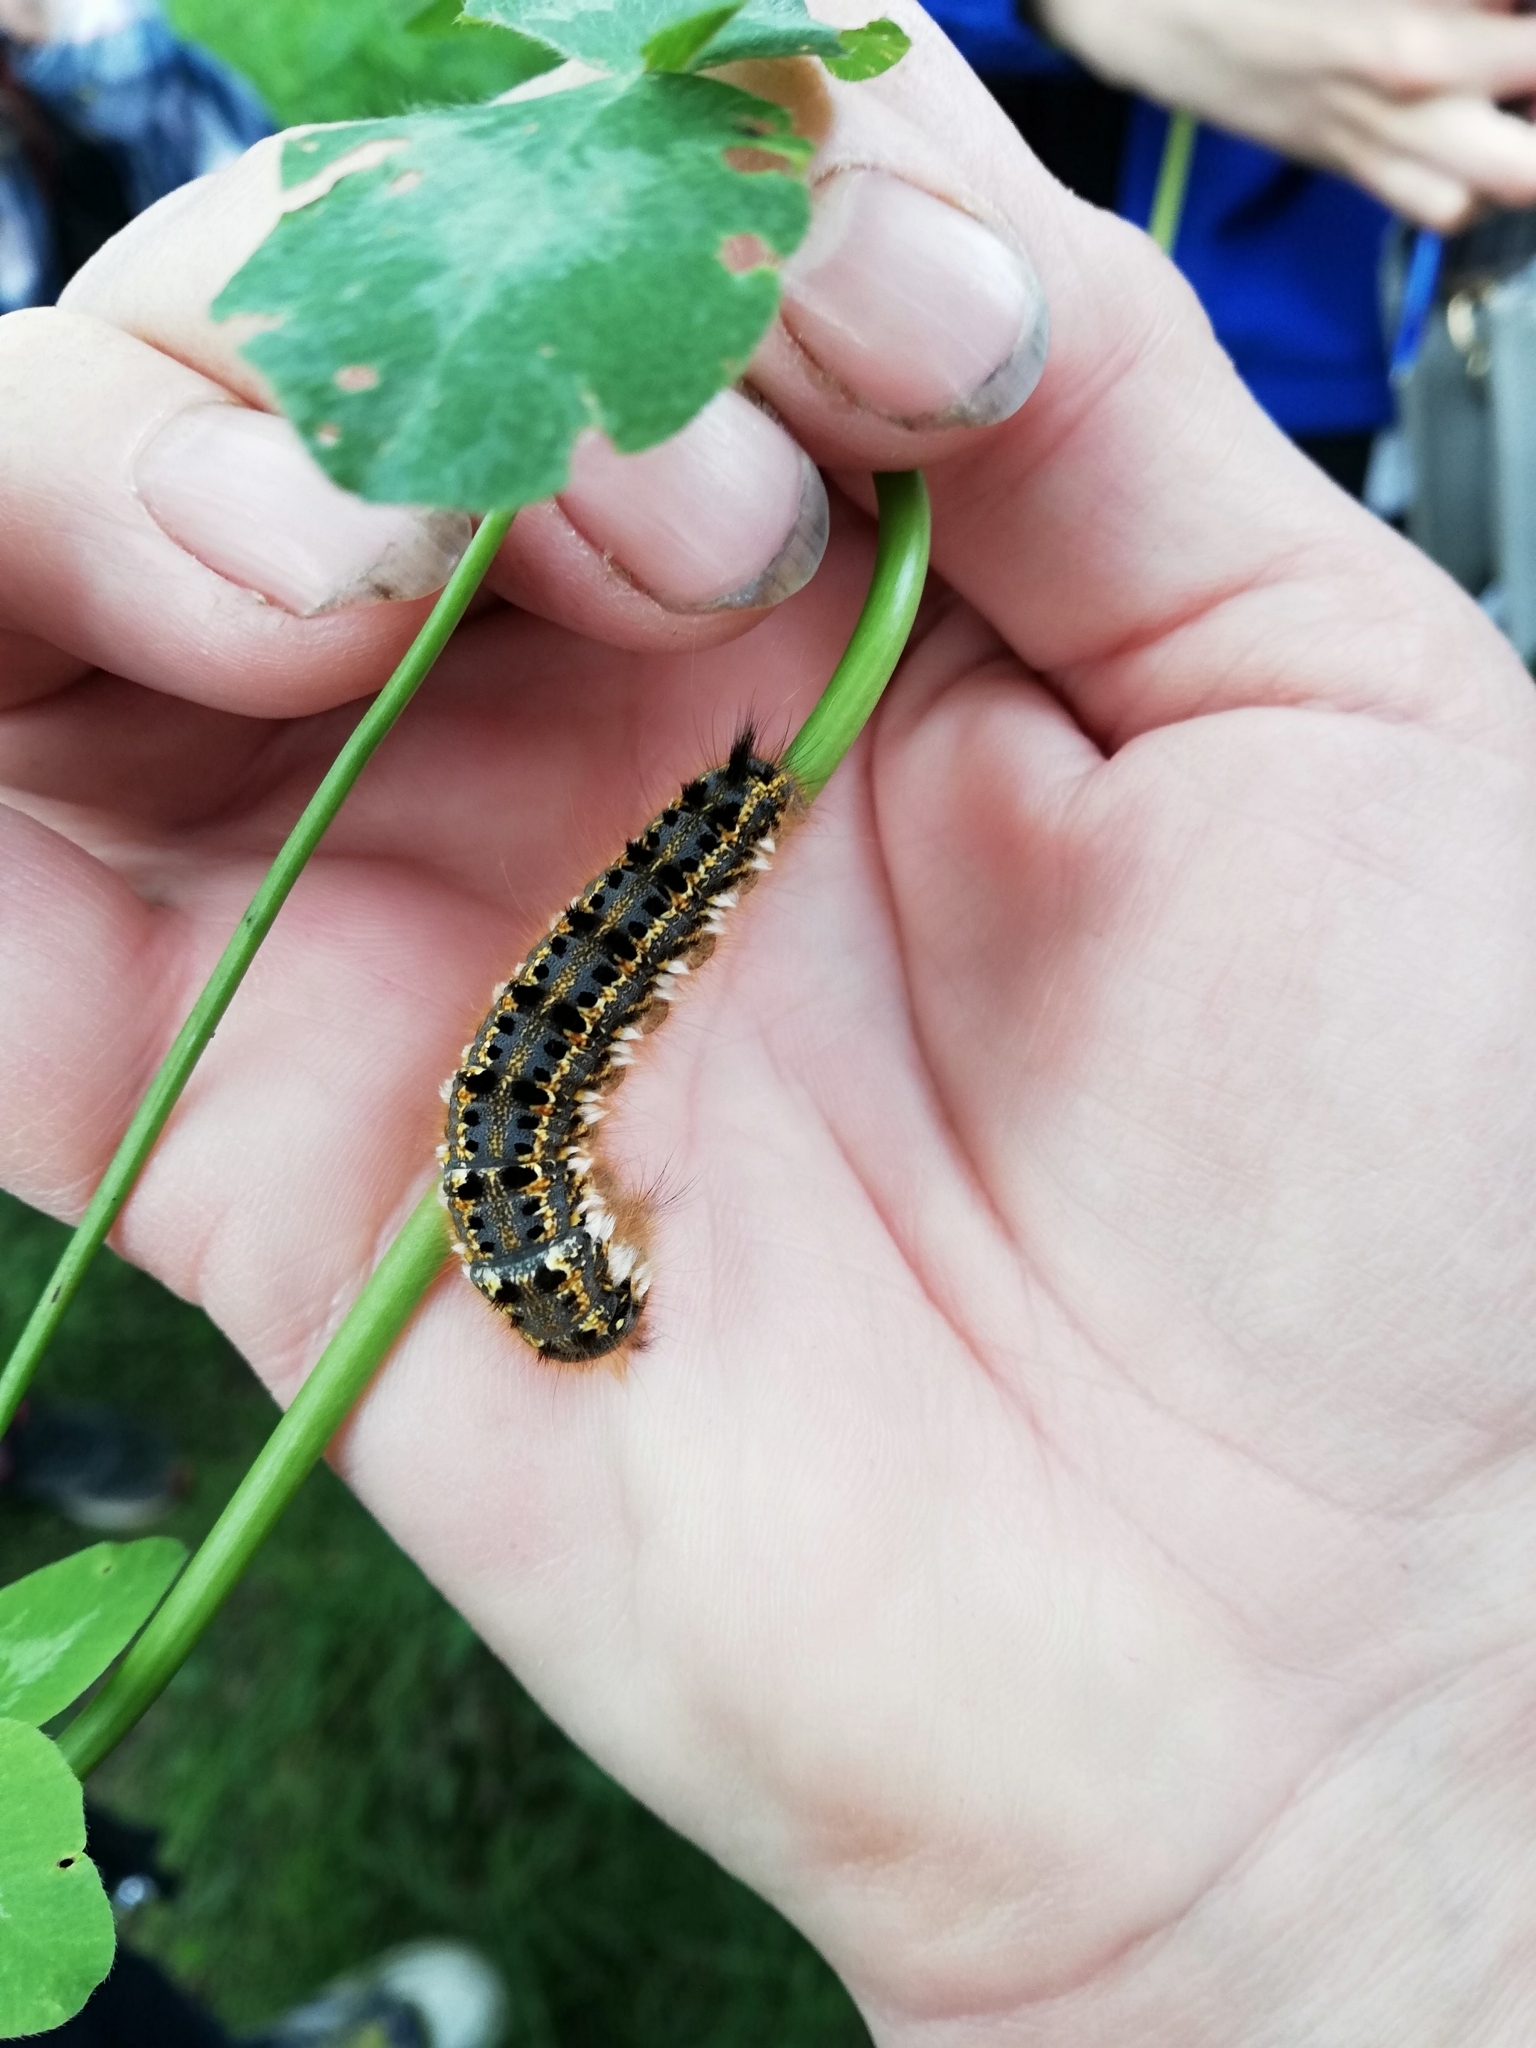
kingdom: Animalia
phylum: Arthropoda
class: Insecta
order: Lepidoptera
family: Lasiocampidae
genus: Euthrix
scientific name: Euthrix potatoria
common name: Drinker
